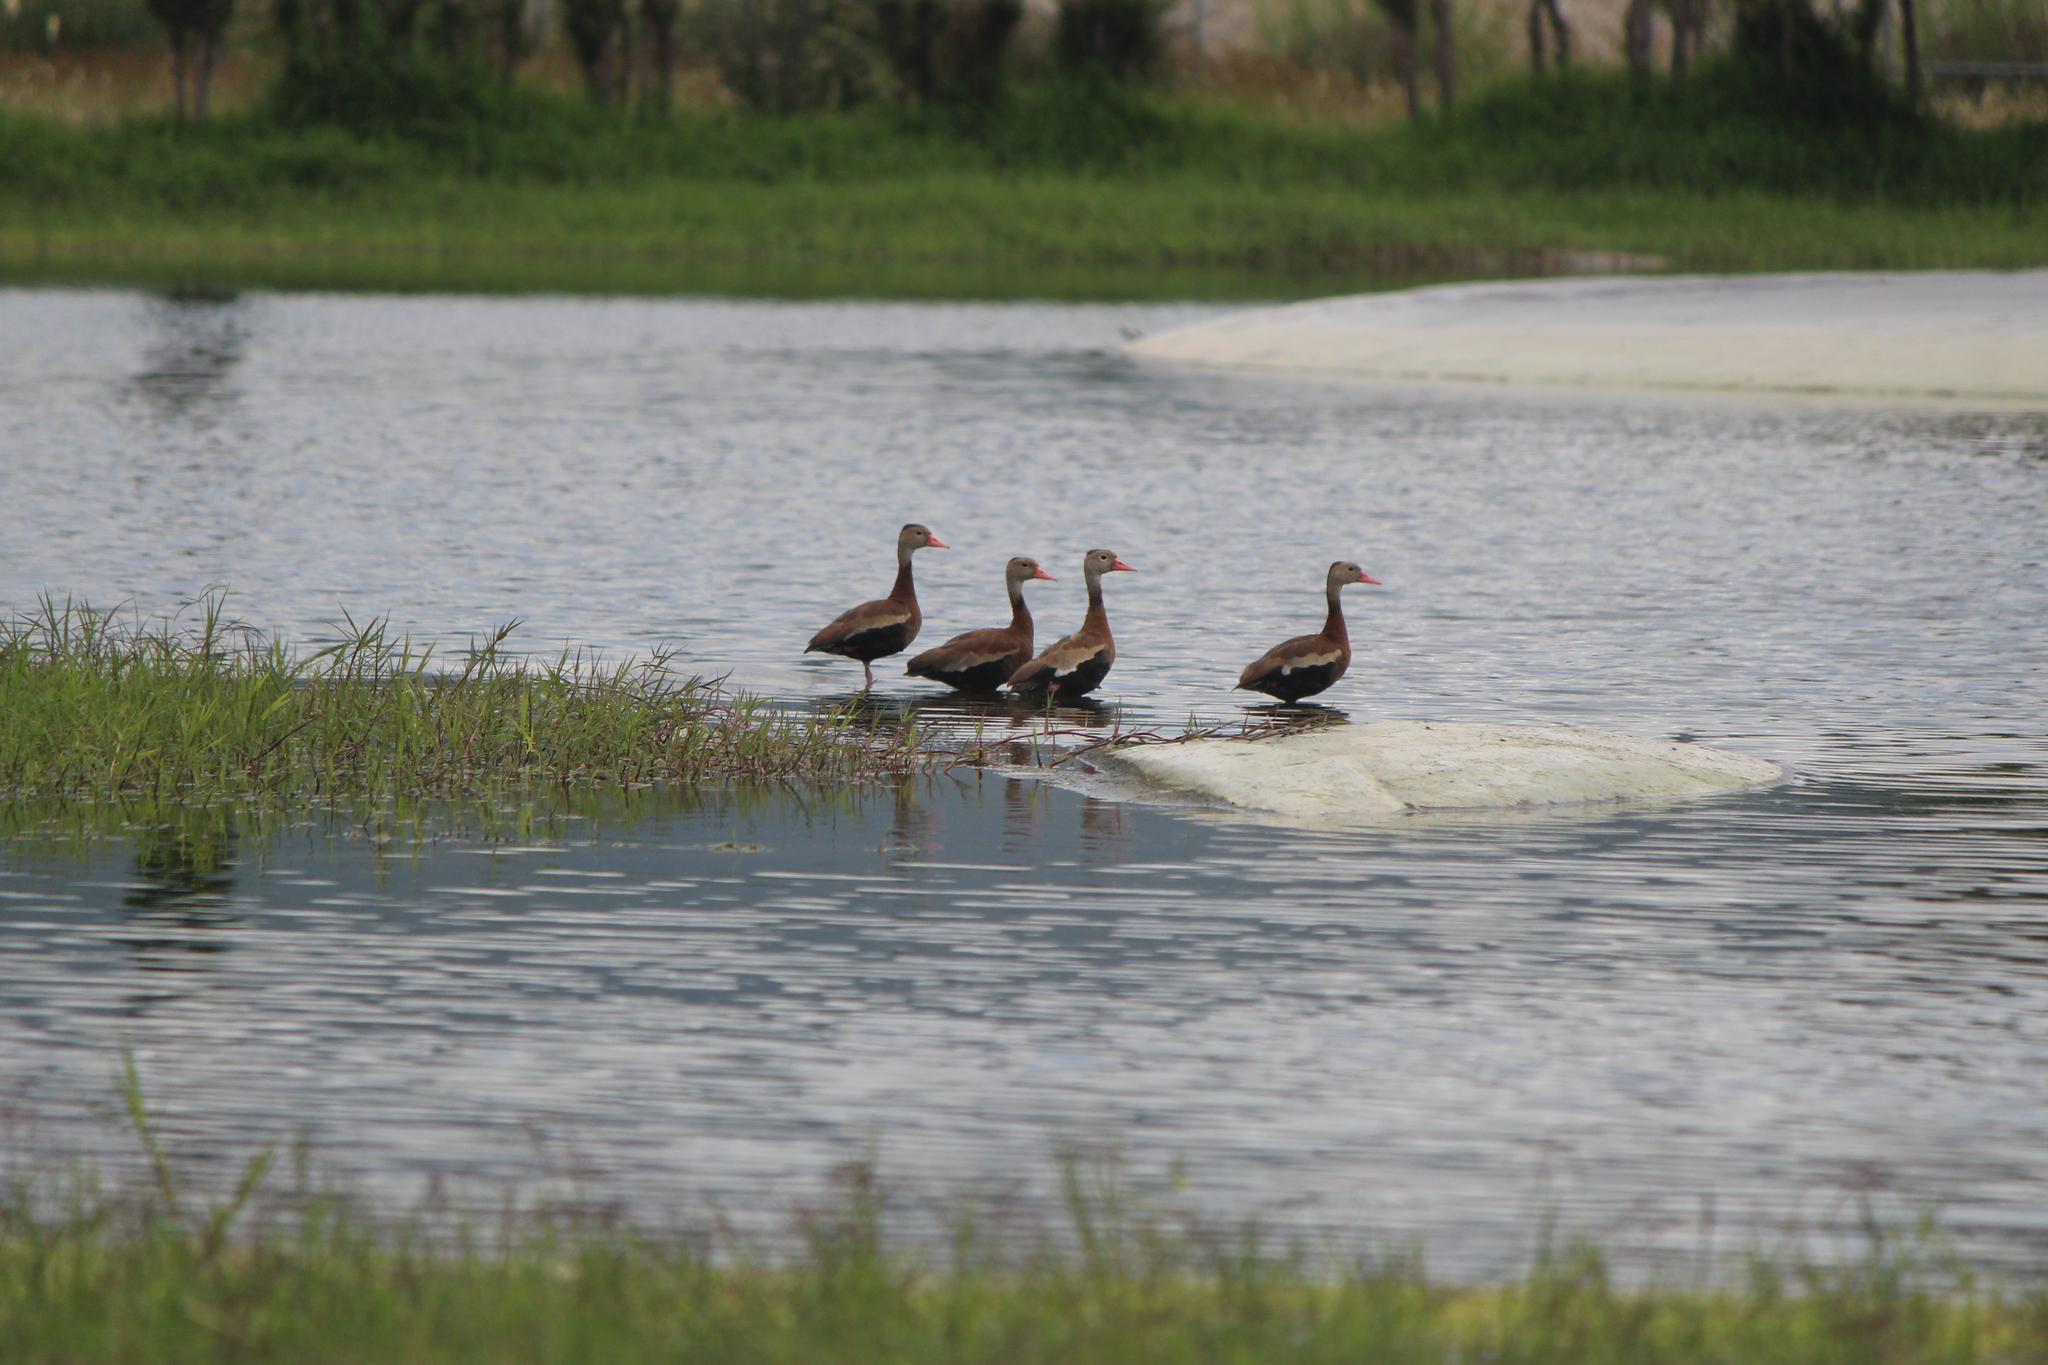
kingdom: Animalia
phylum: Chordata
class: Aves
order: Anseriformes
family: Anatidae
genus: Dendrocygna
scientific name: Dendrocygna autumnalis
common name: Black-bellied whistling duck
